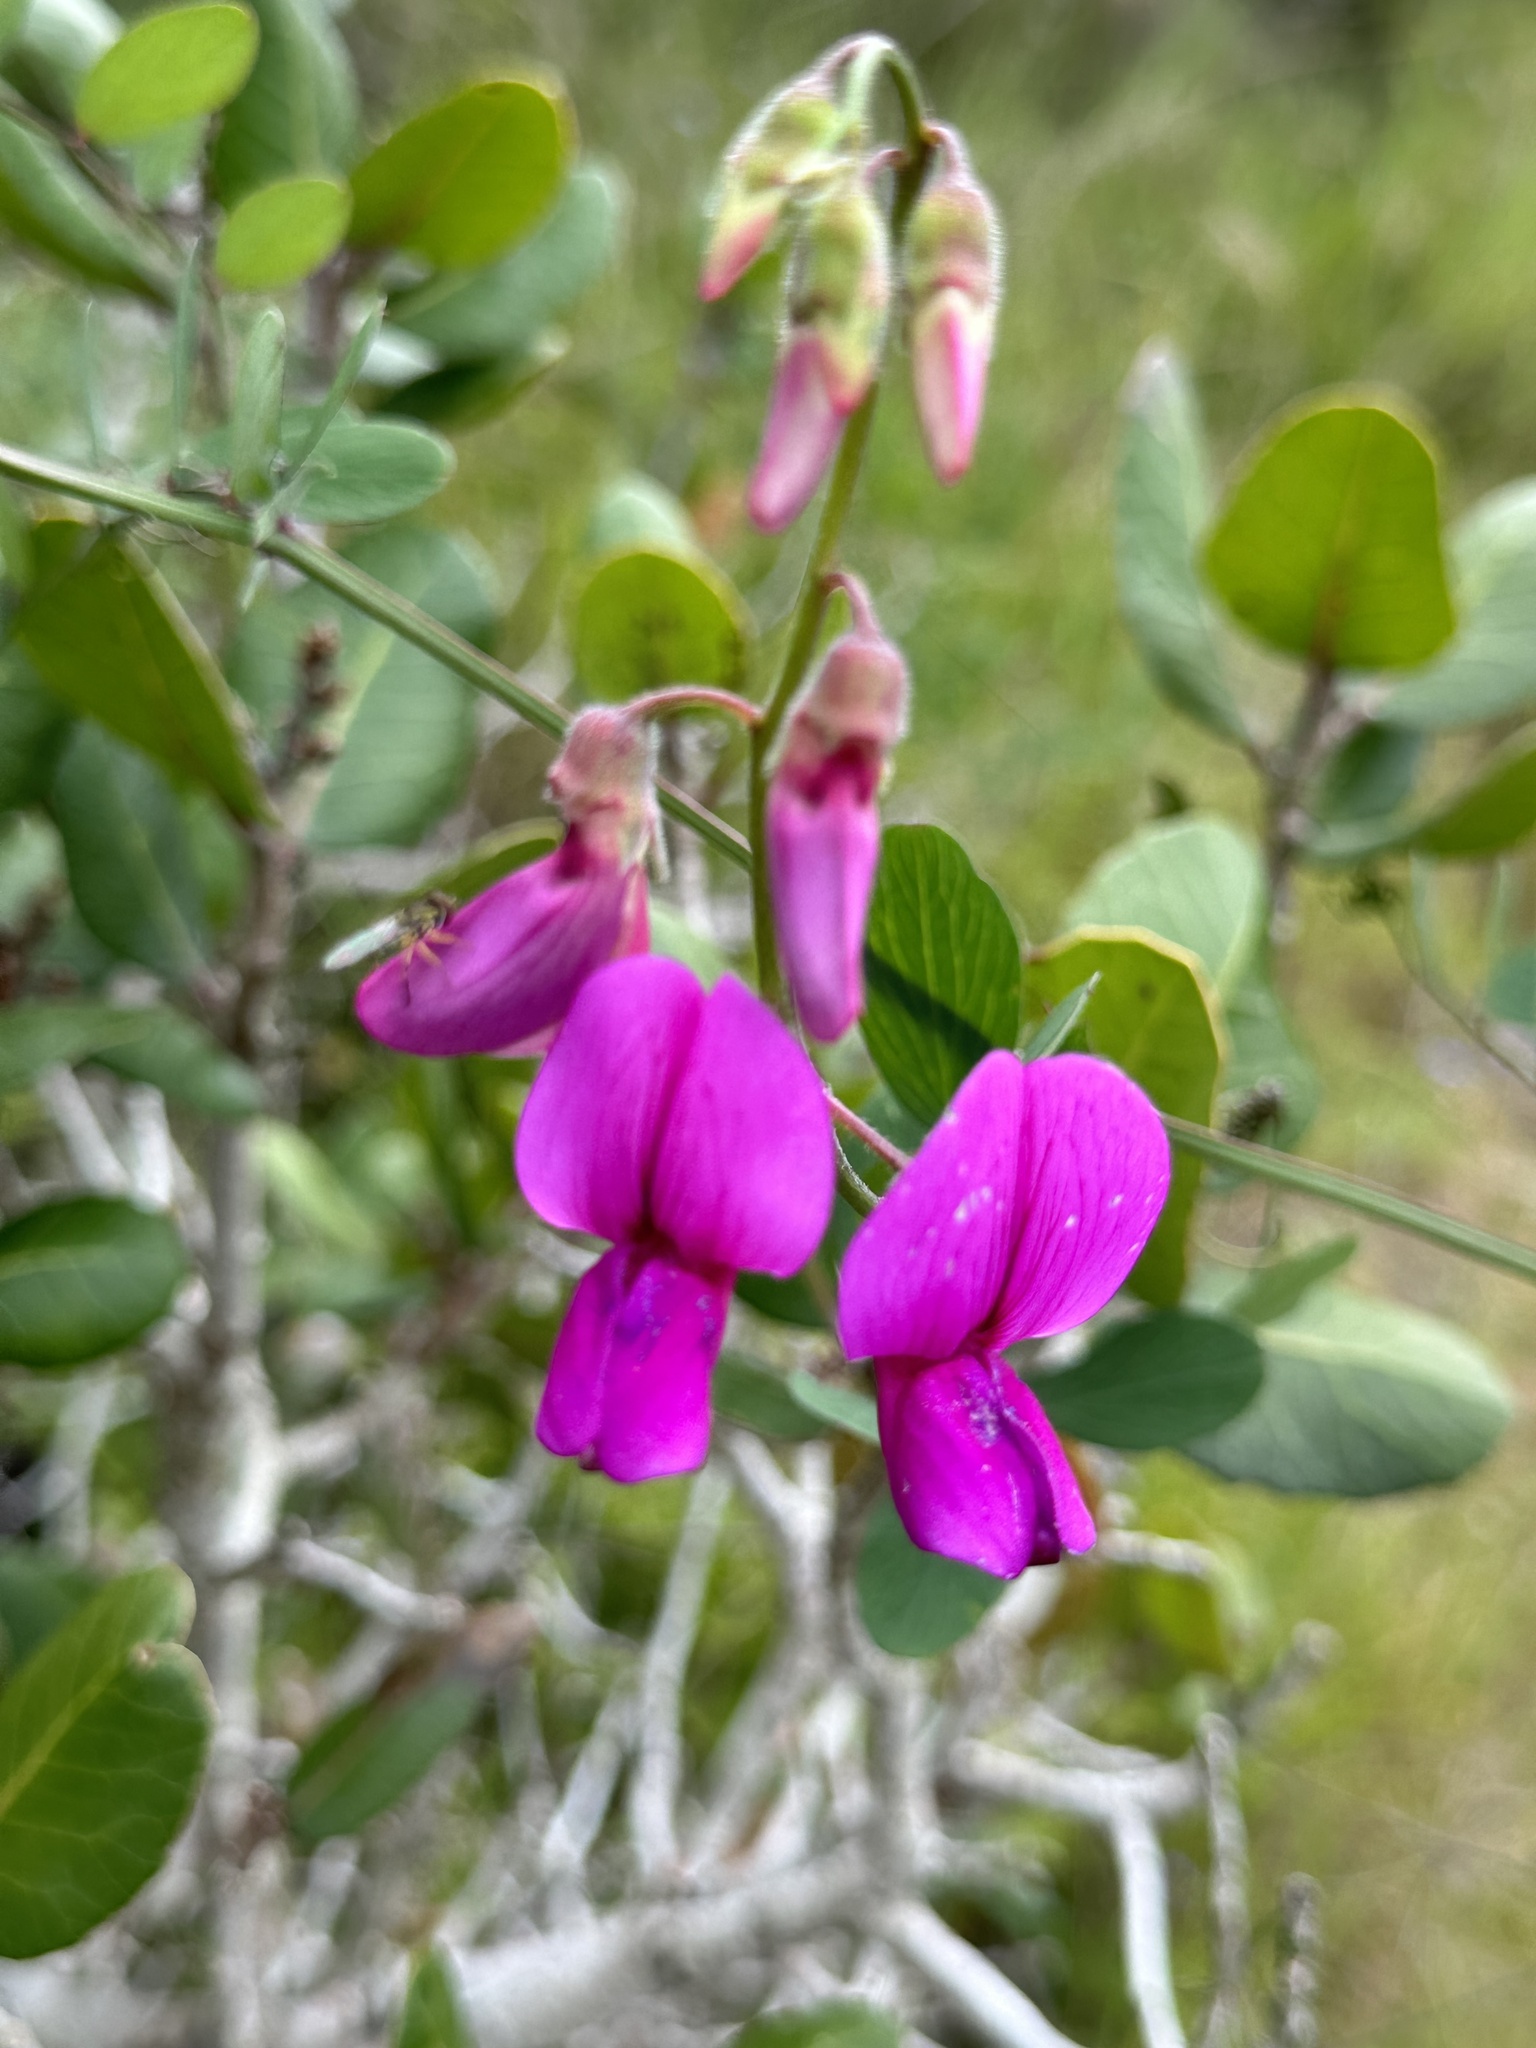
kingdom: Plantae
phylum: Tracheophyta
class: Magnoliopsida
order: Fabales
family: Fabaceae
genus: Lathyrus
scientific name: Lathyrus vestitus
